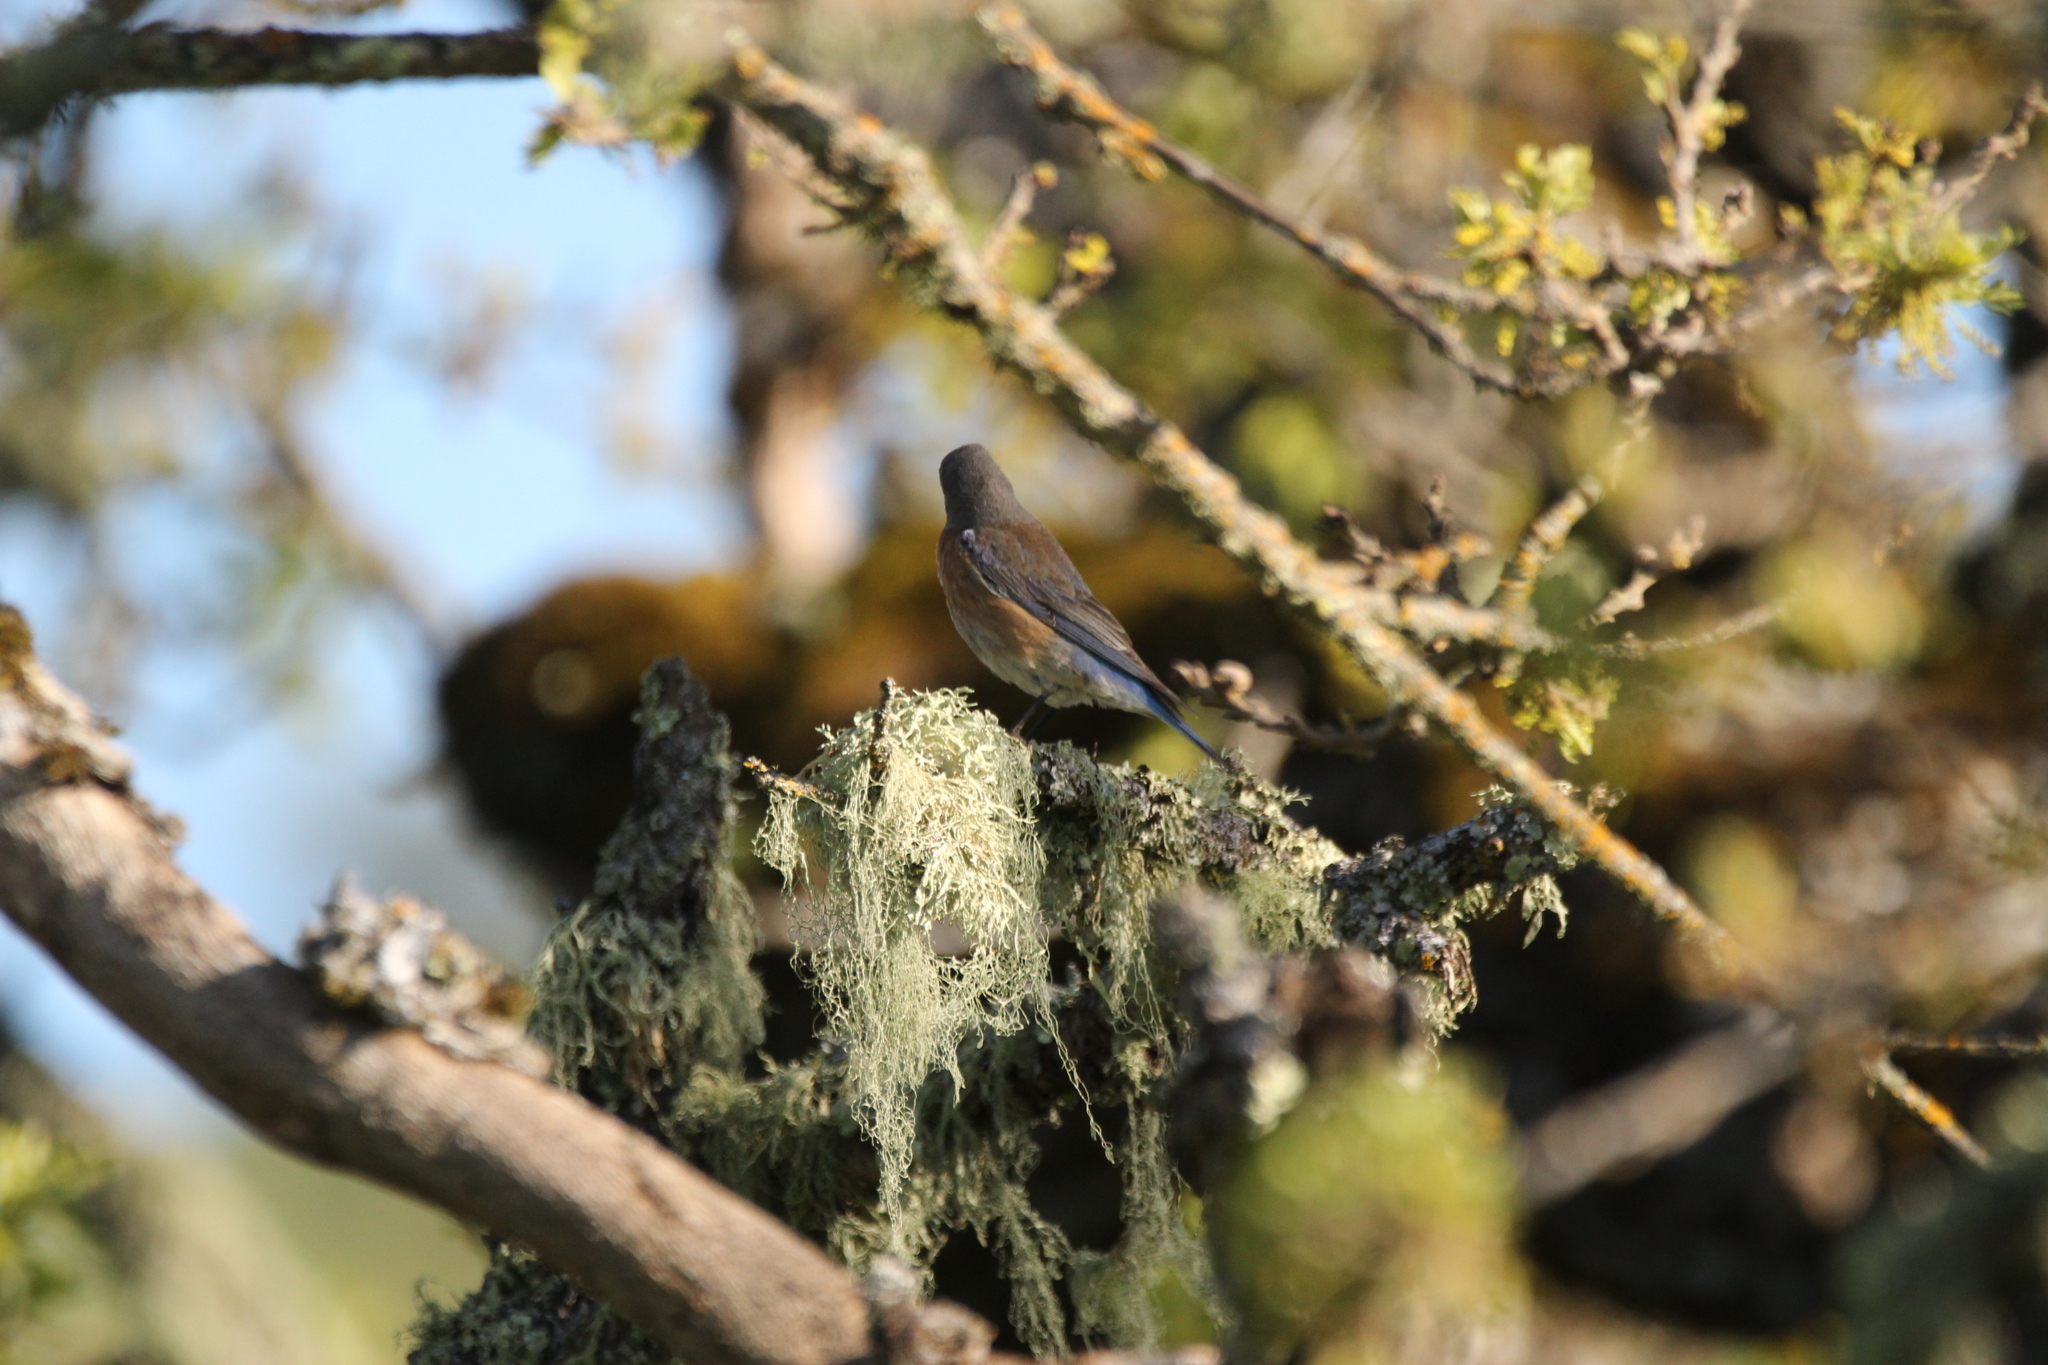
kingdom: Animalia
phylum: Chordata
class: Aves
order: Passeriformes
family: Turdidae
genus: Sialia
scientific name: Sialia mexicana
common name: Western bluebird
